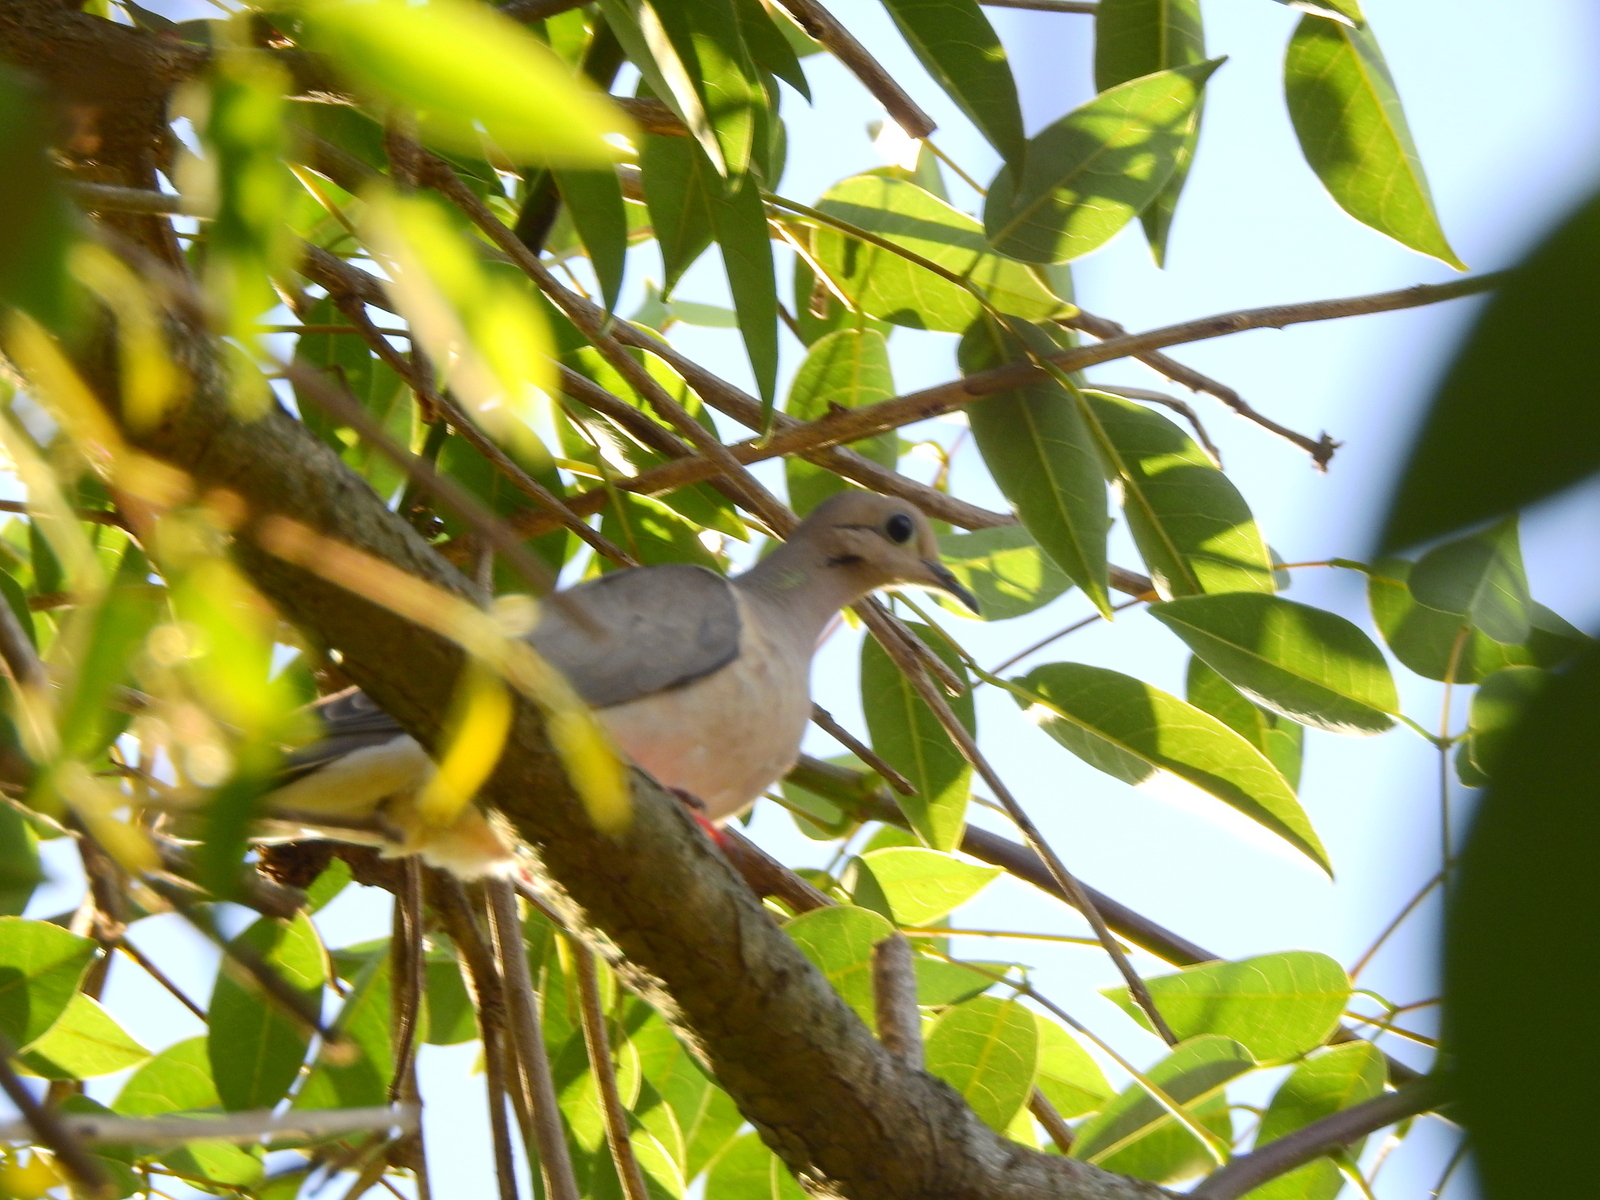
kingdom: Animalia
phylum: Chordata
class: Aves
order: Columbiformes
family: Columbidae
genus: Zenaida
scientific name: Zenaida auriculata
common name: Eared dove
